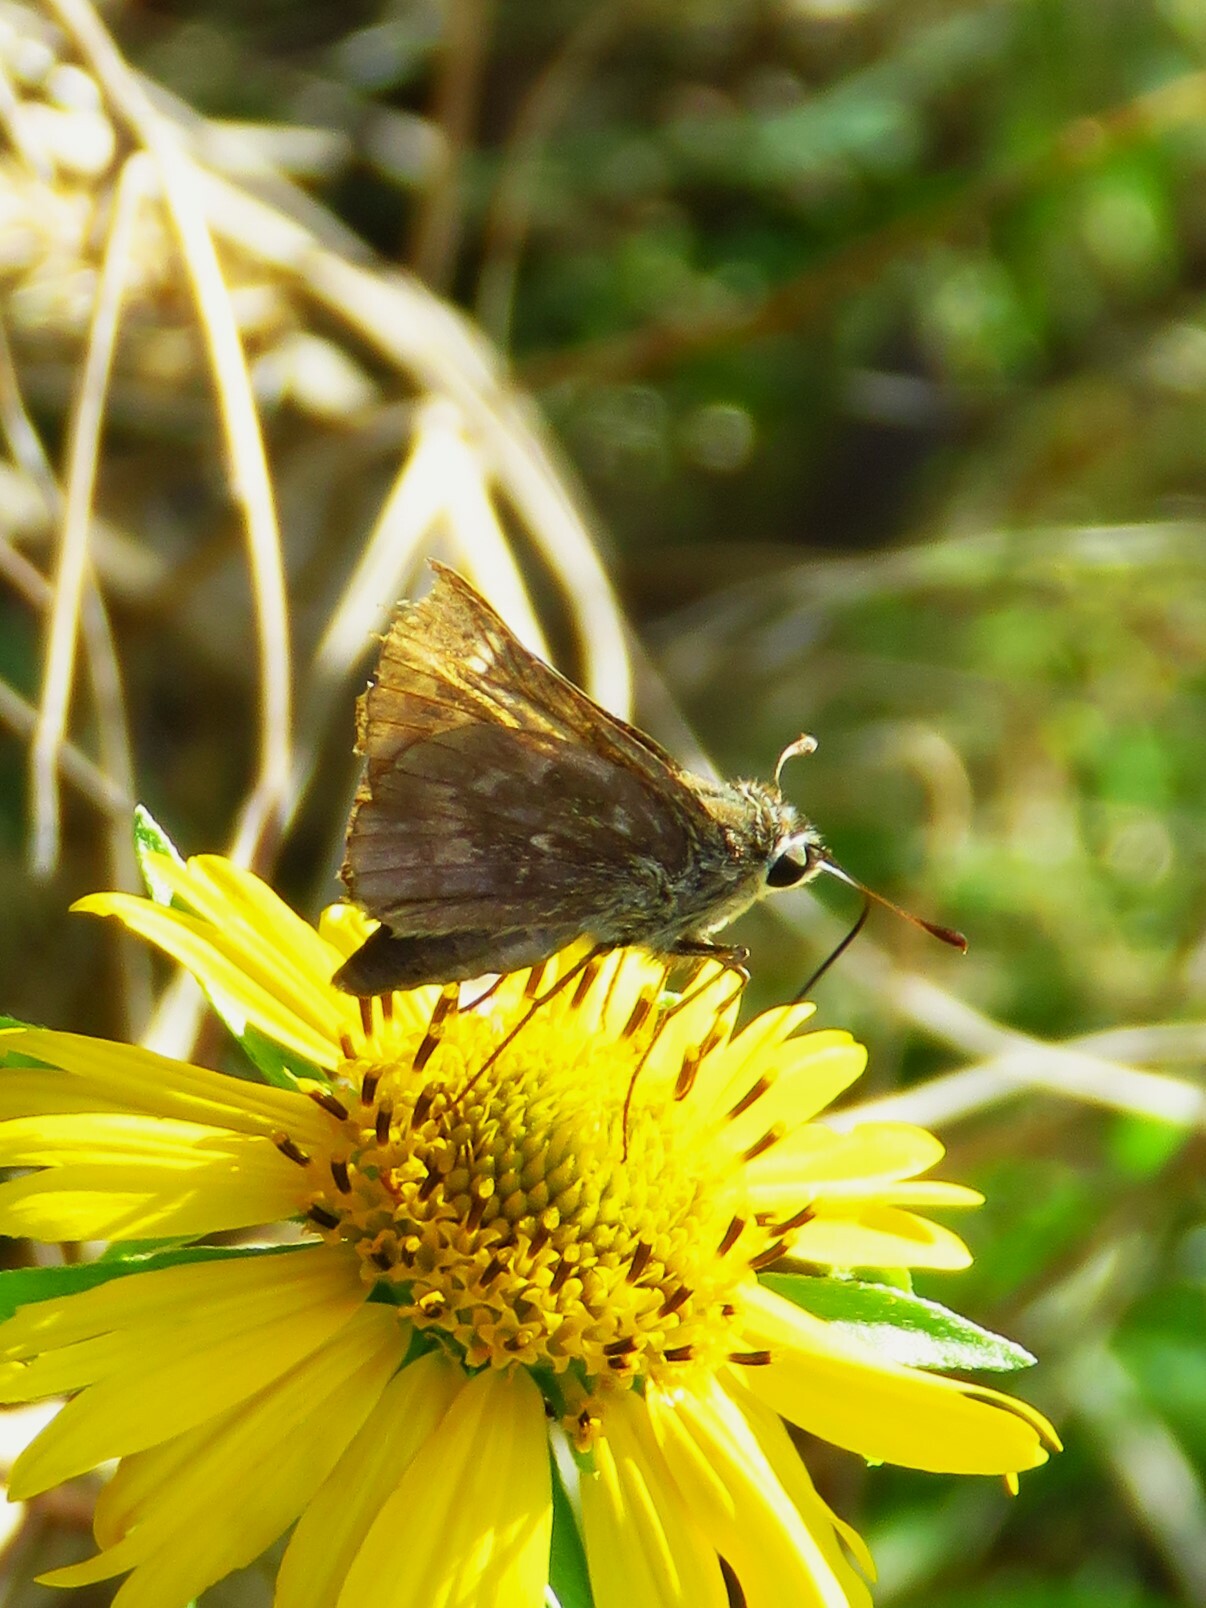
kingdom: Animalia
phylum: Arthropoda
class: Insecta
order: Lepidoptera
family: Hesperiidae
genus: Atalopedes
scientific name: Atalopedes
